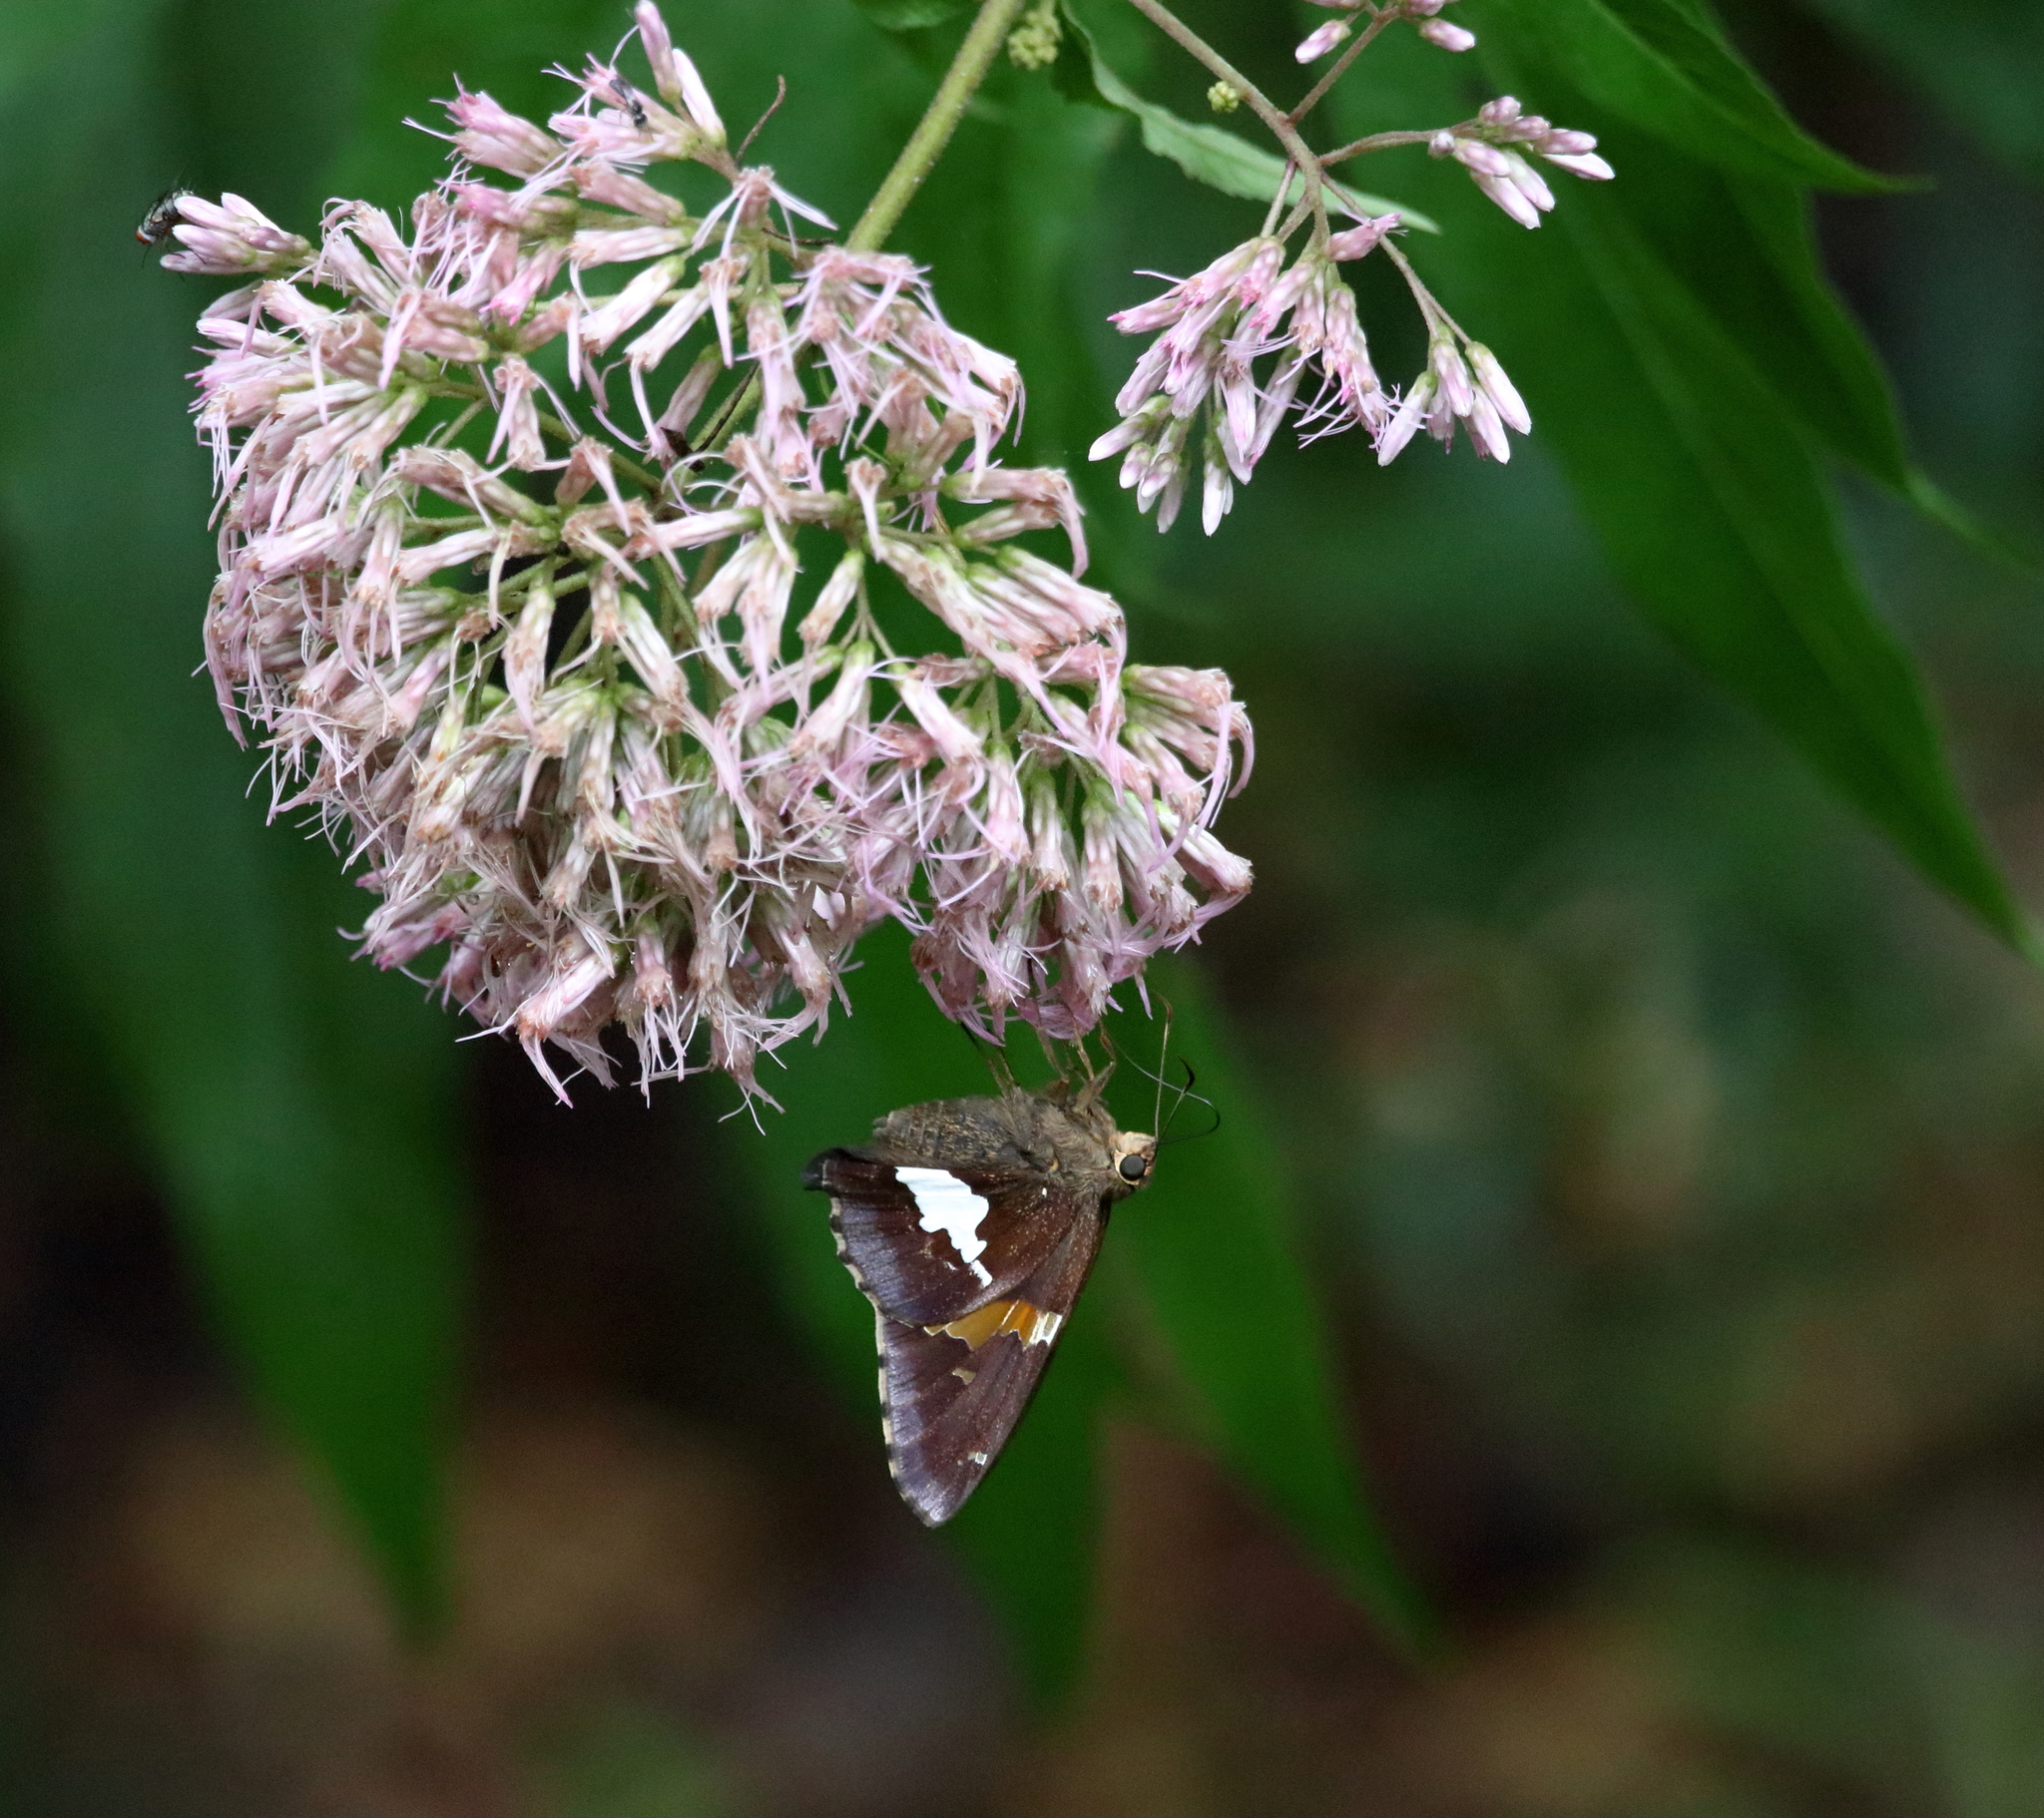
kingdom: Animalia
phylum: Arthropoda
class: Insecta
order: Lepidoptera
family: Hesperiidae
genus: Epargyreus
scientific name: Epargyreus clarus
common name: Silver-spotted skipper
